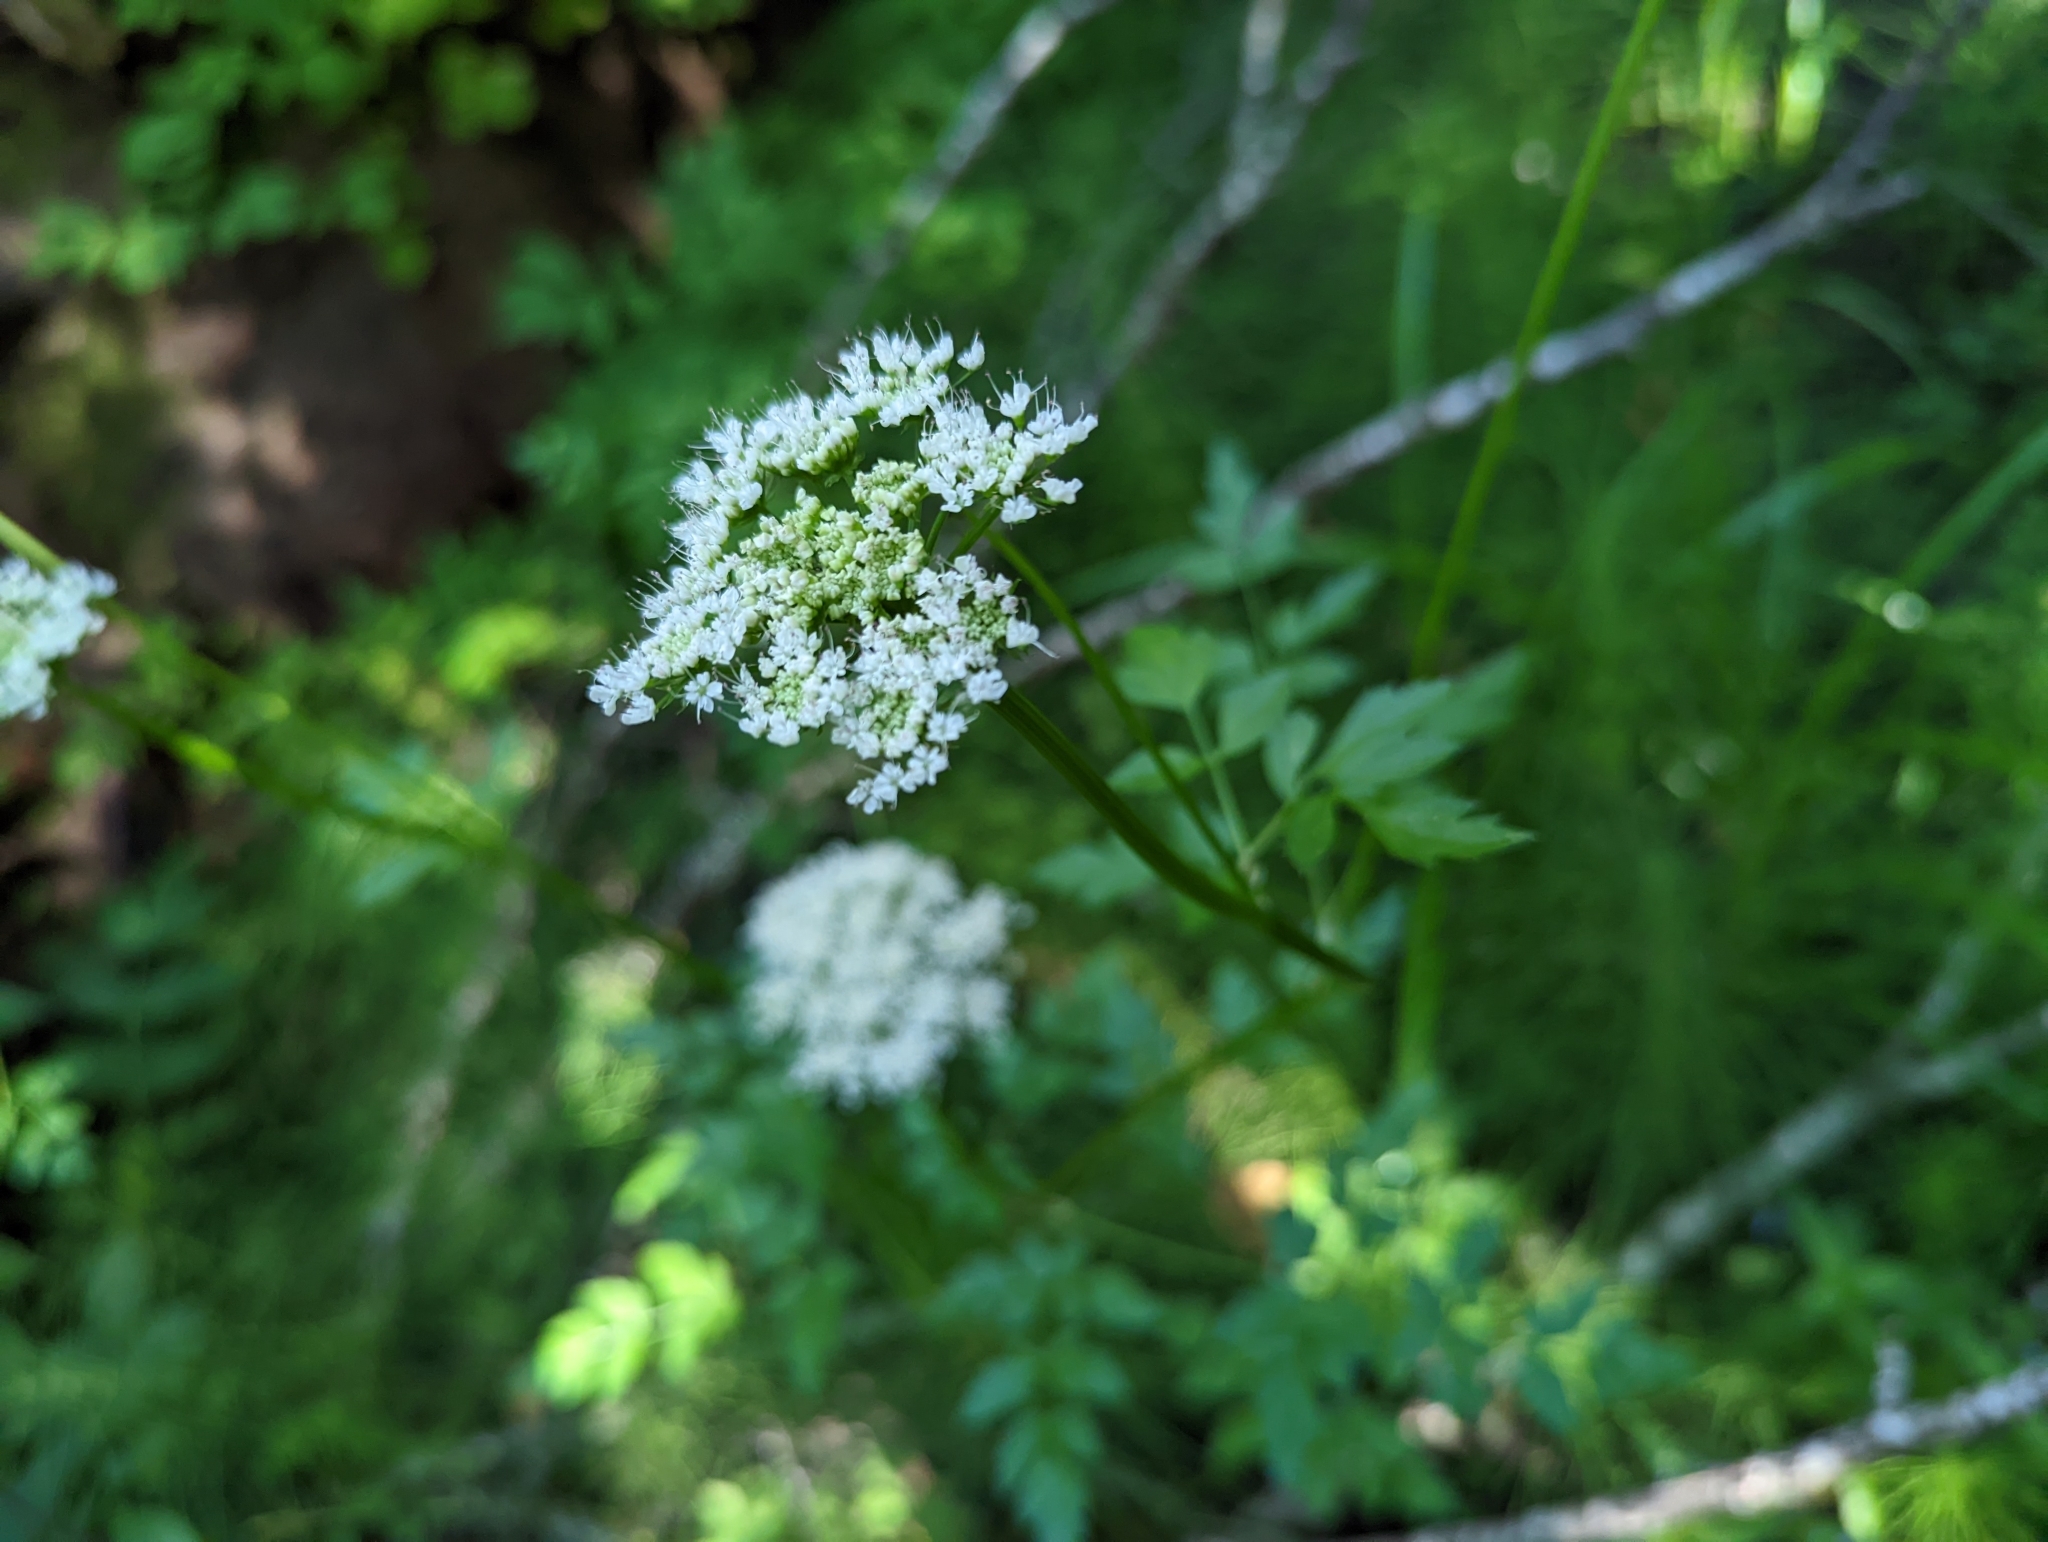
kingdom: Plantae
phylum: Tracheophyta
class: Magnoliopsida
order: Apiales
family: Apiaceae
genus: Oenanthe
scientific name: Oenanthe sarmentosa
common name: American water-parsley
